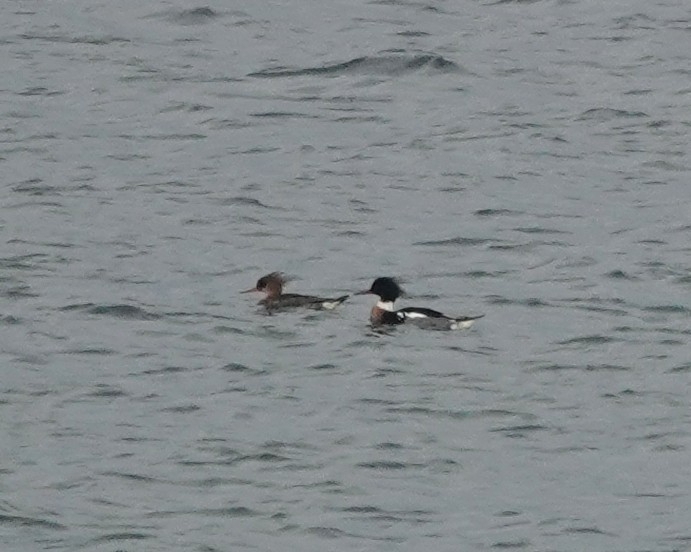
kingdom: Animalia
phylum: Chordata
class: Aves
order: Anseriformes
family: Anatidae
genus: Mergus
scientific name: Mergus serrator
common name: Red-breasted merganser
